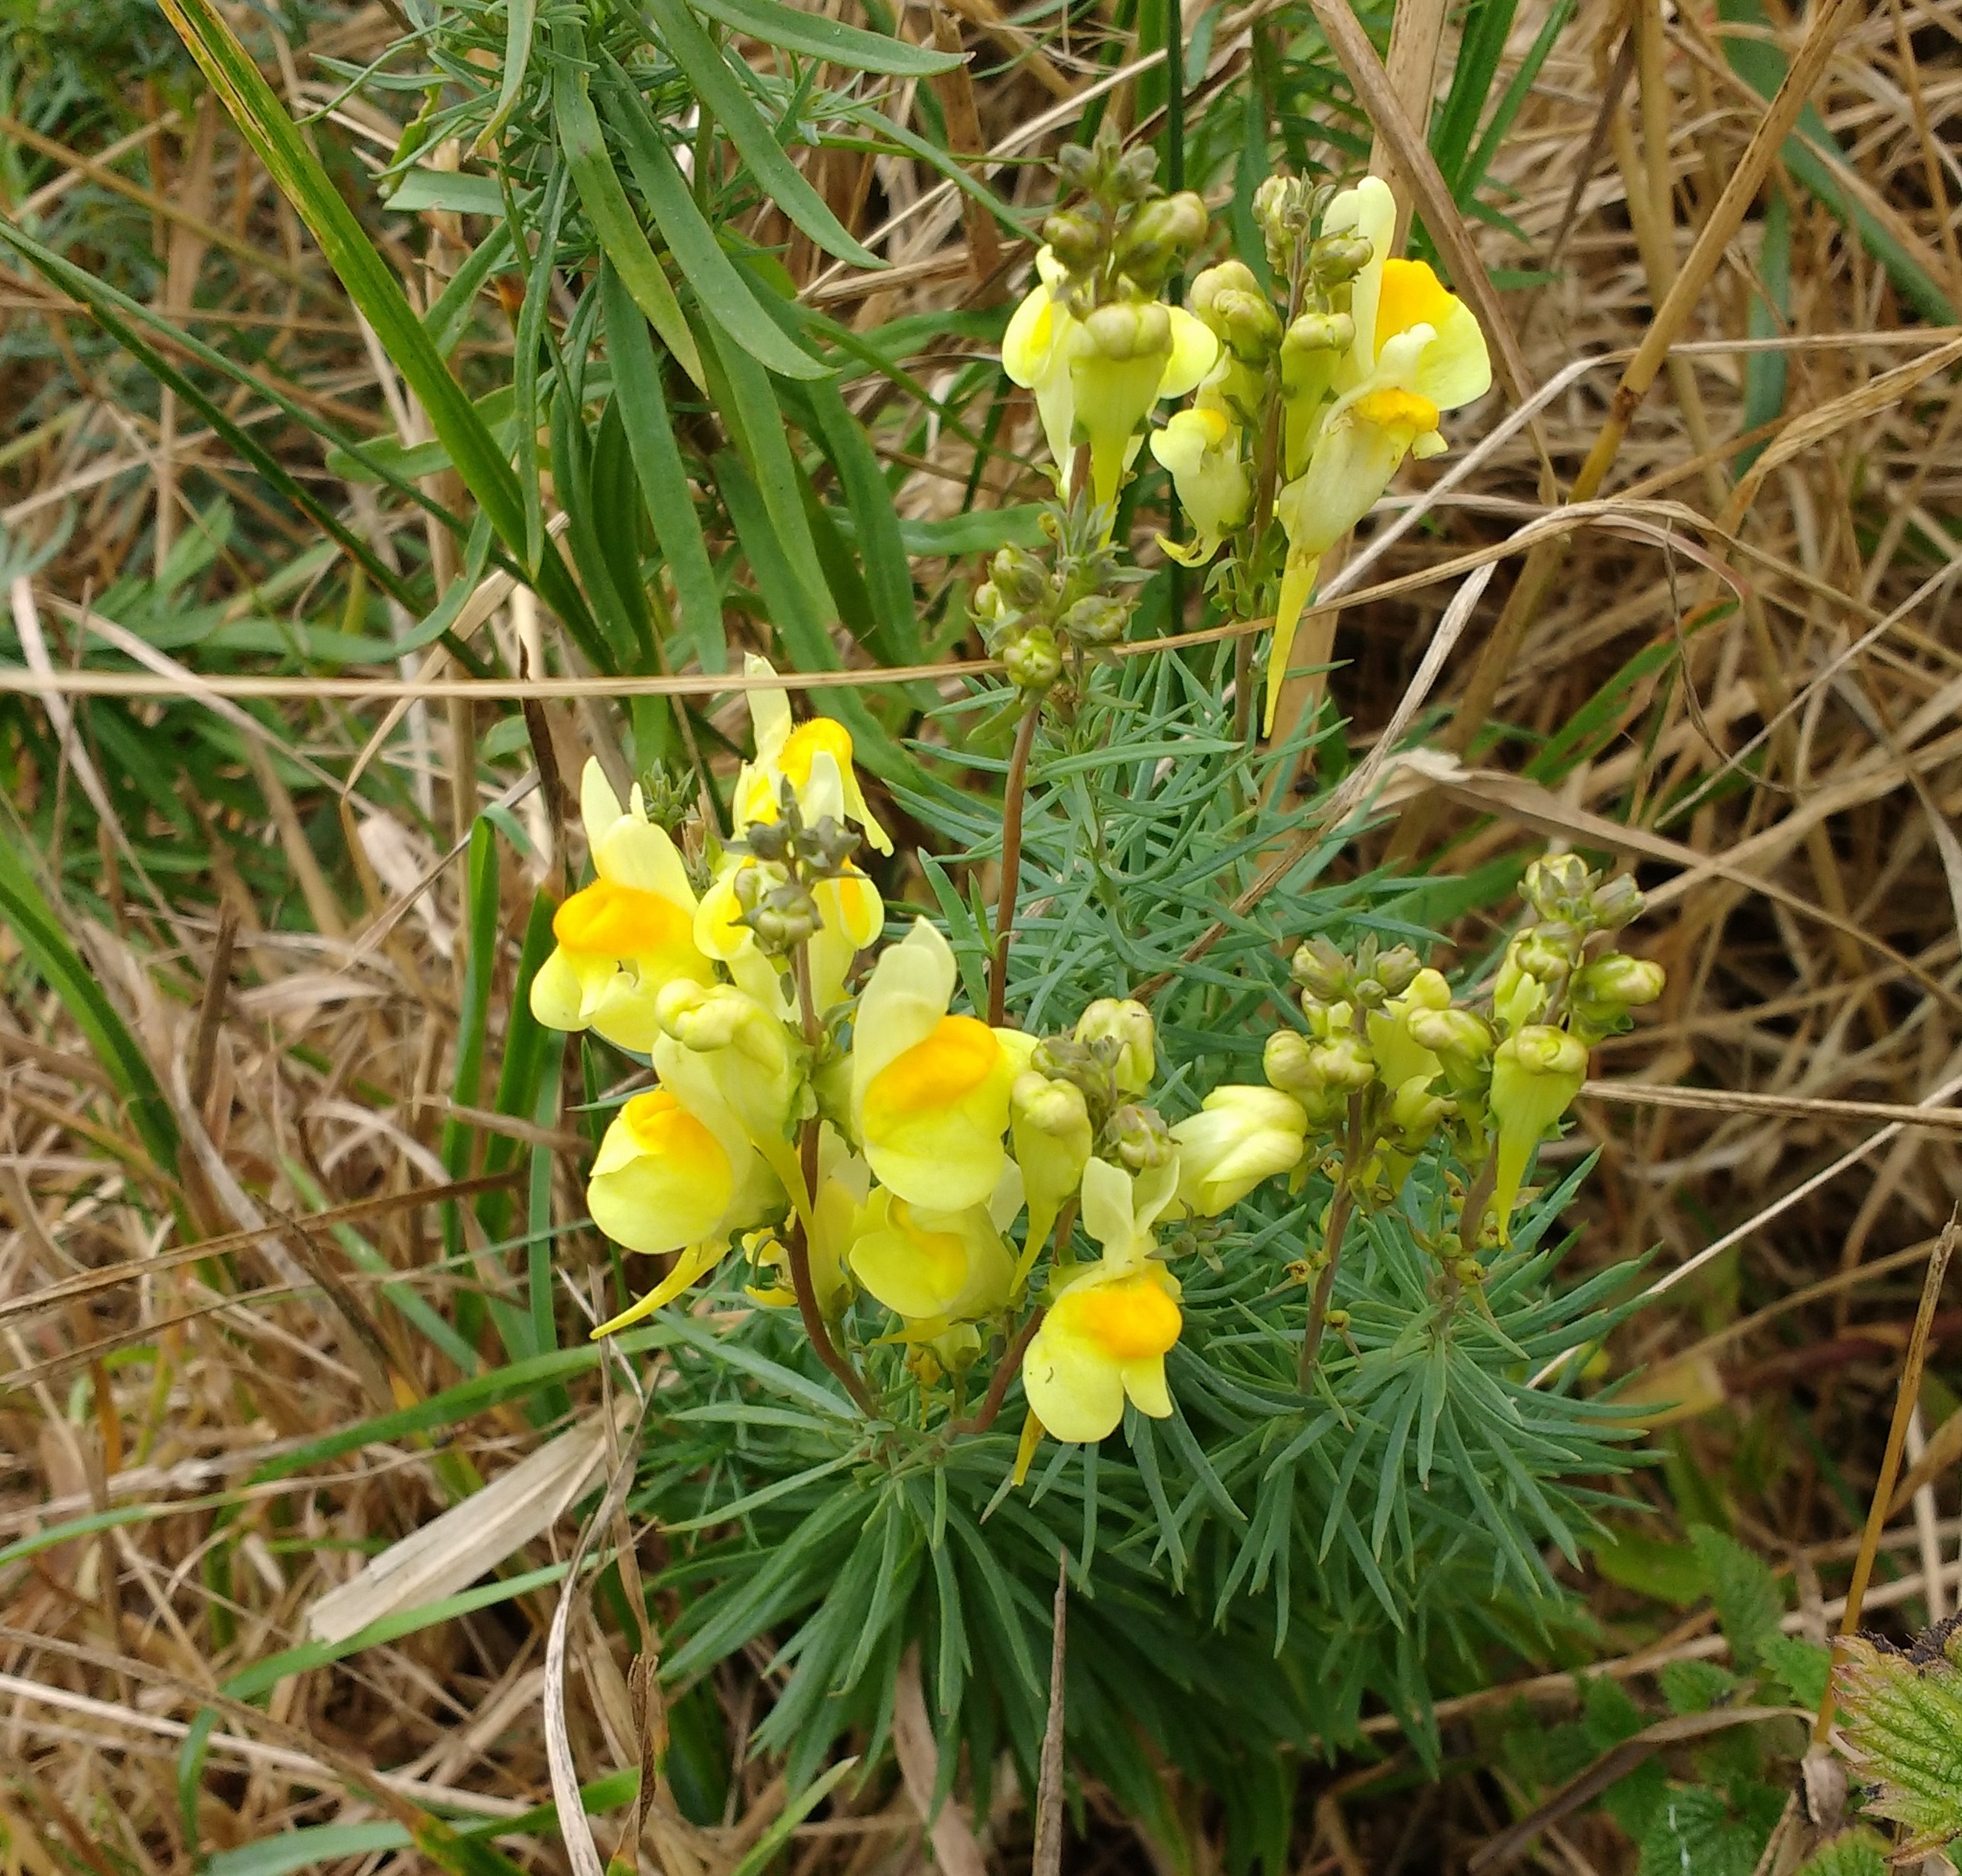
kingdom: Plantae
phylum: Tracheophyta
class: Magnoliopsida
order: Lamiales
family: Plantaginaceae
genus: Linaria
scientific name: Linaria vulgaris
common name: Butter and eggs
